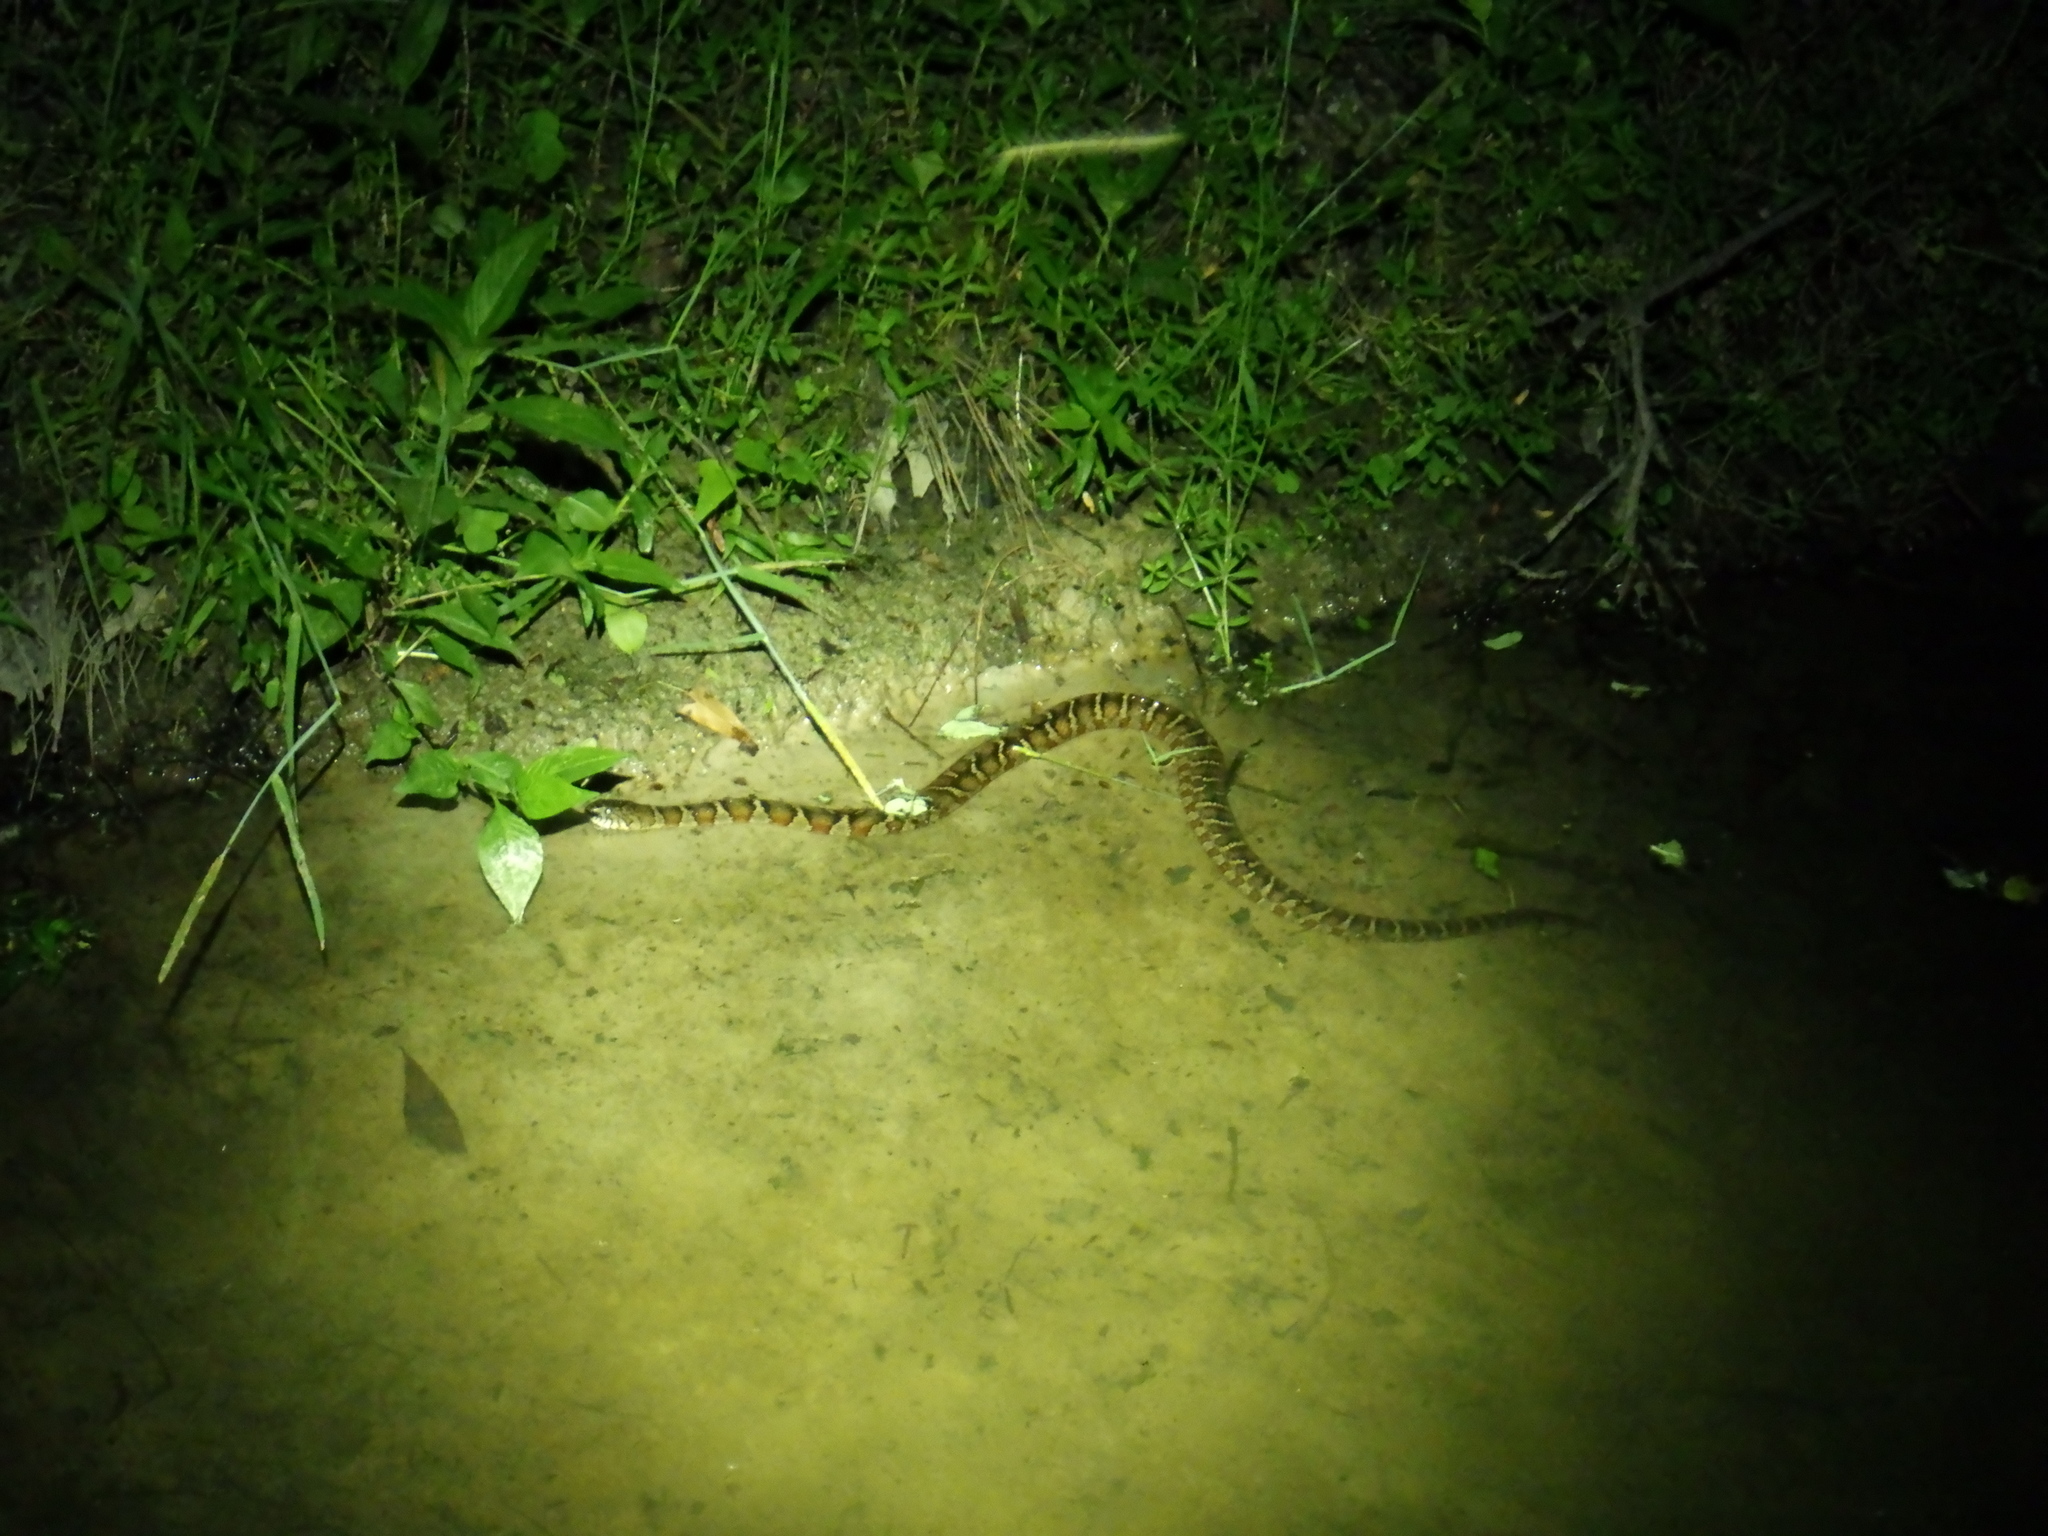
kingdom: Animalia
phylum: Chordata
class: Squamata
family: Colubridae
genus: Nerodia
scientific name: Nerodia sipedon
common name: Northern water snake
